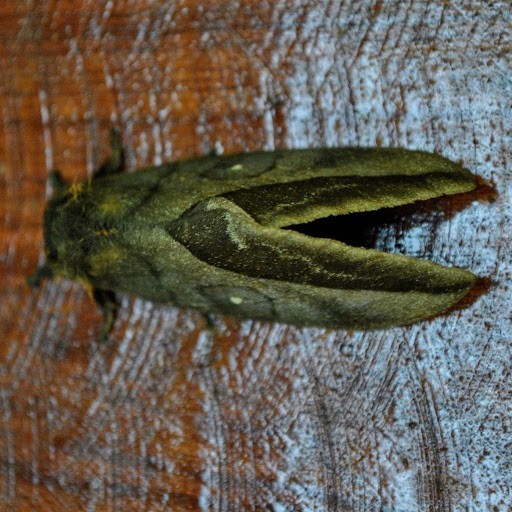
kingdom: Animalia
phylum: Arthropoda
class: Insecta
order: Lepidoptera
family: Saturniidae
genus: Automeris
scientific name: Automeris inornata
